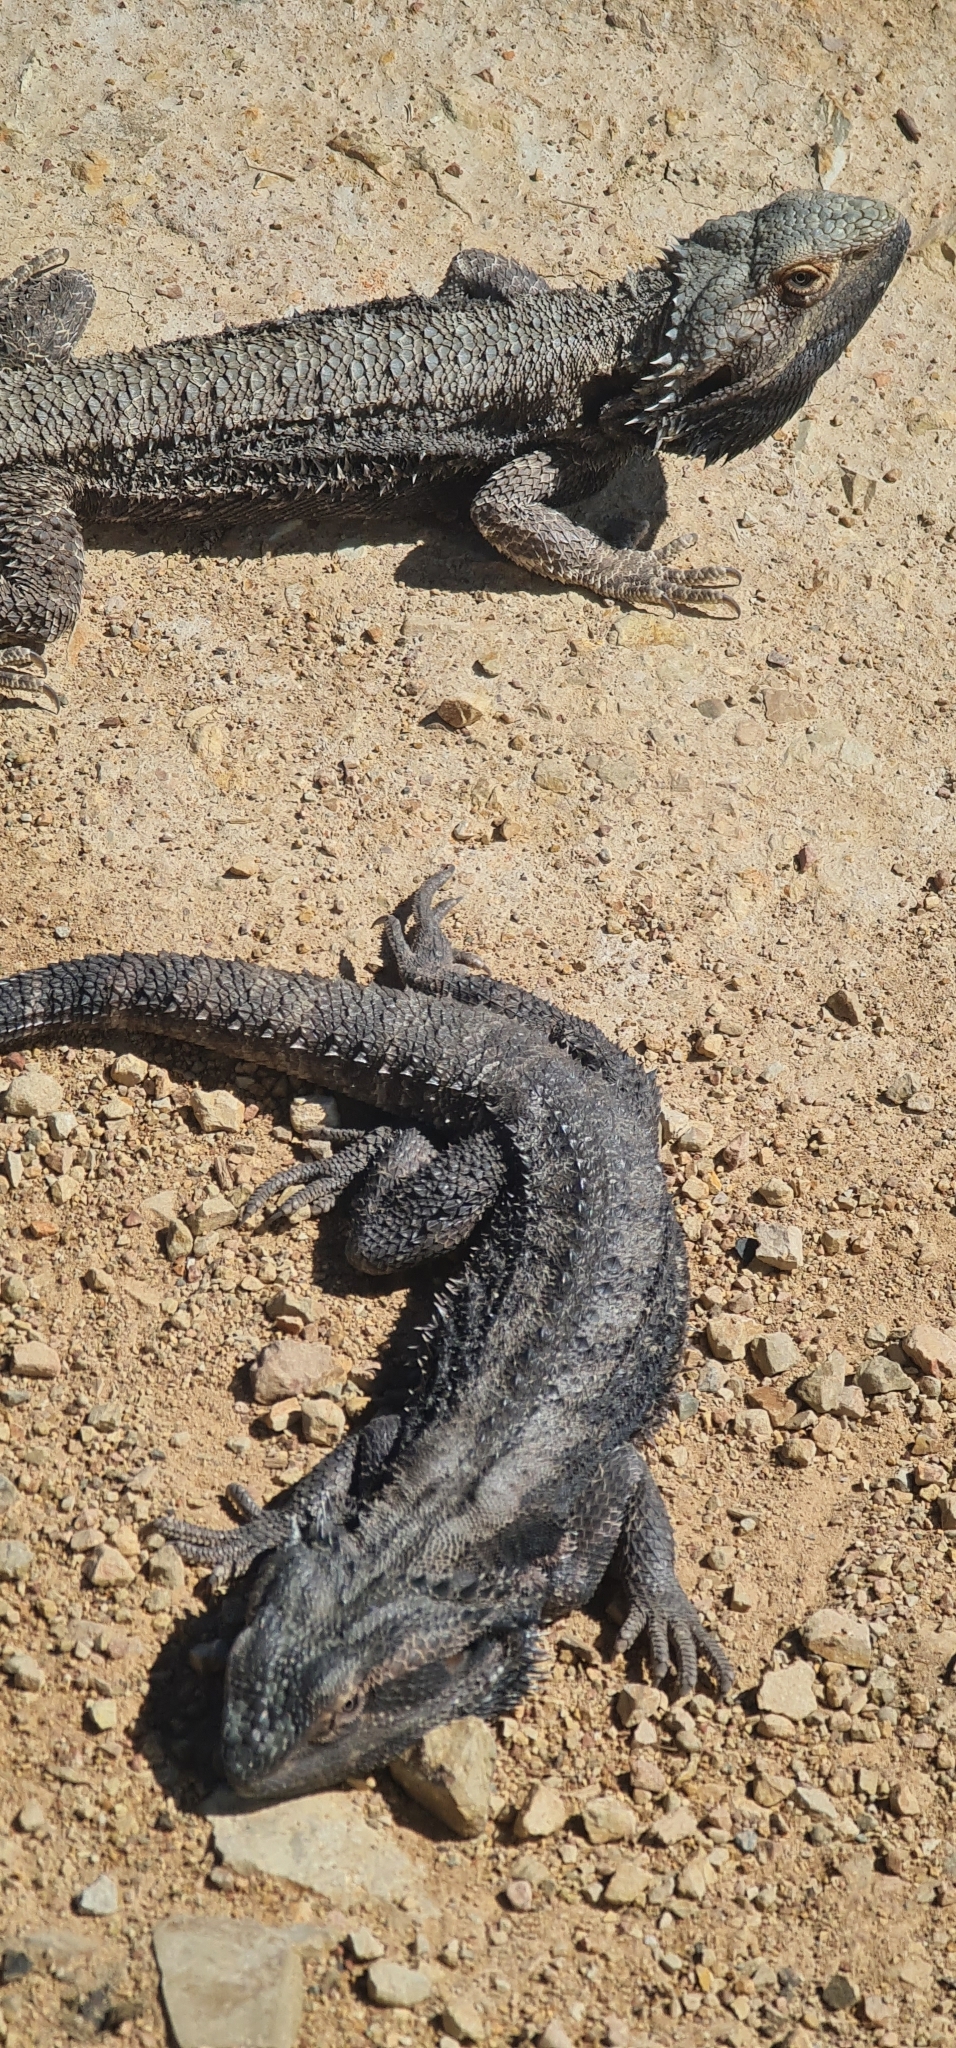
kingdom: Animalia
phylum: Chordata
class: Squamata
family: Agamidae
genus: Pogona
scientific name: Pogona barbata
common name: Bearded dragon
